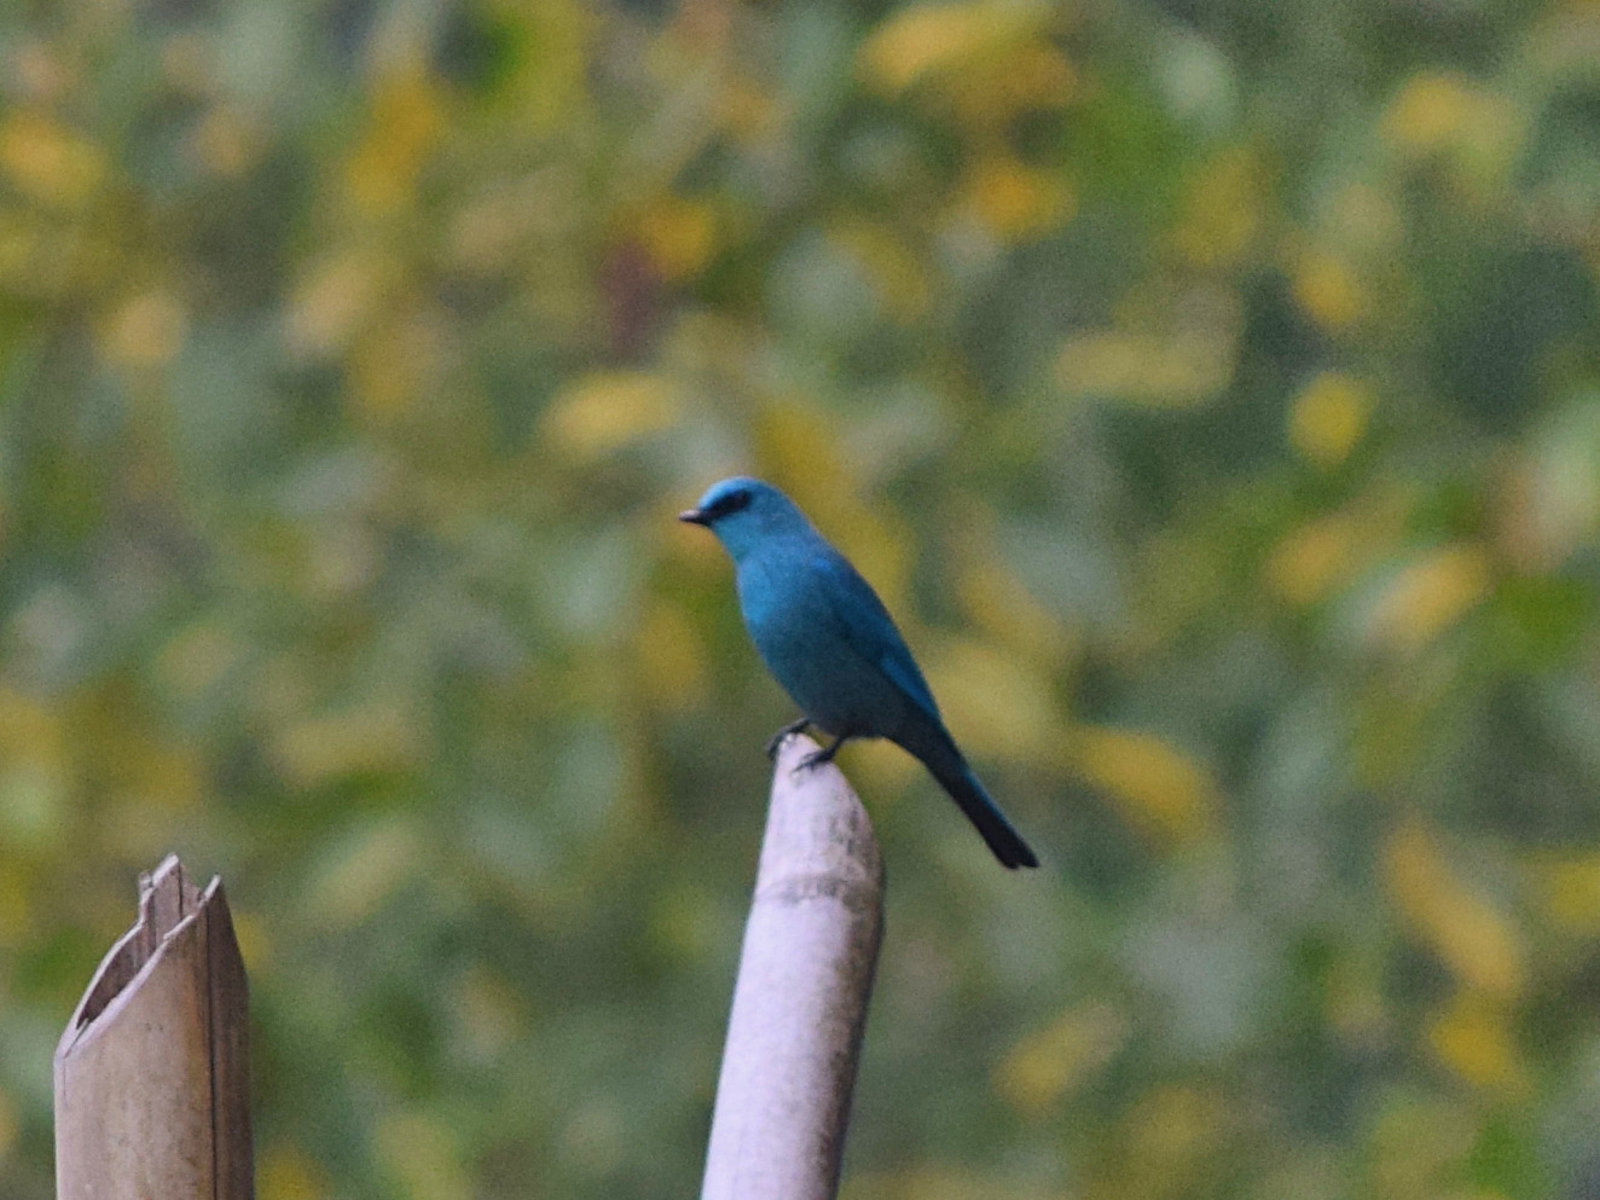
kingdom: Animalia
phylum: Chordata
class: Aves
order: Passeriformes
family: Muscicapidae
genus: Eumyias
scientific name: Eumyias thalassinus
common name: Verditer flycatcher
